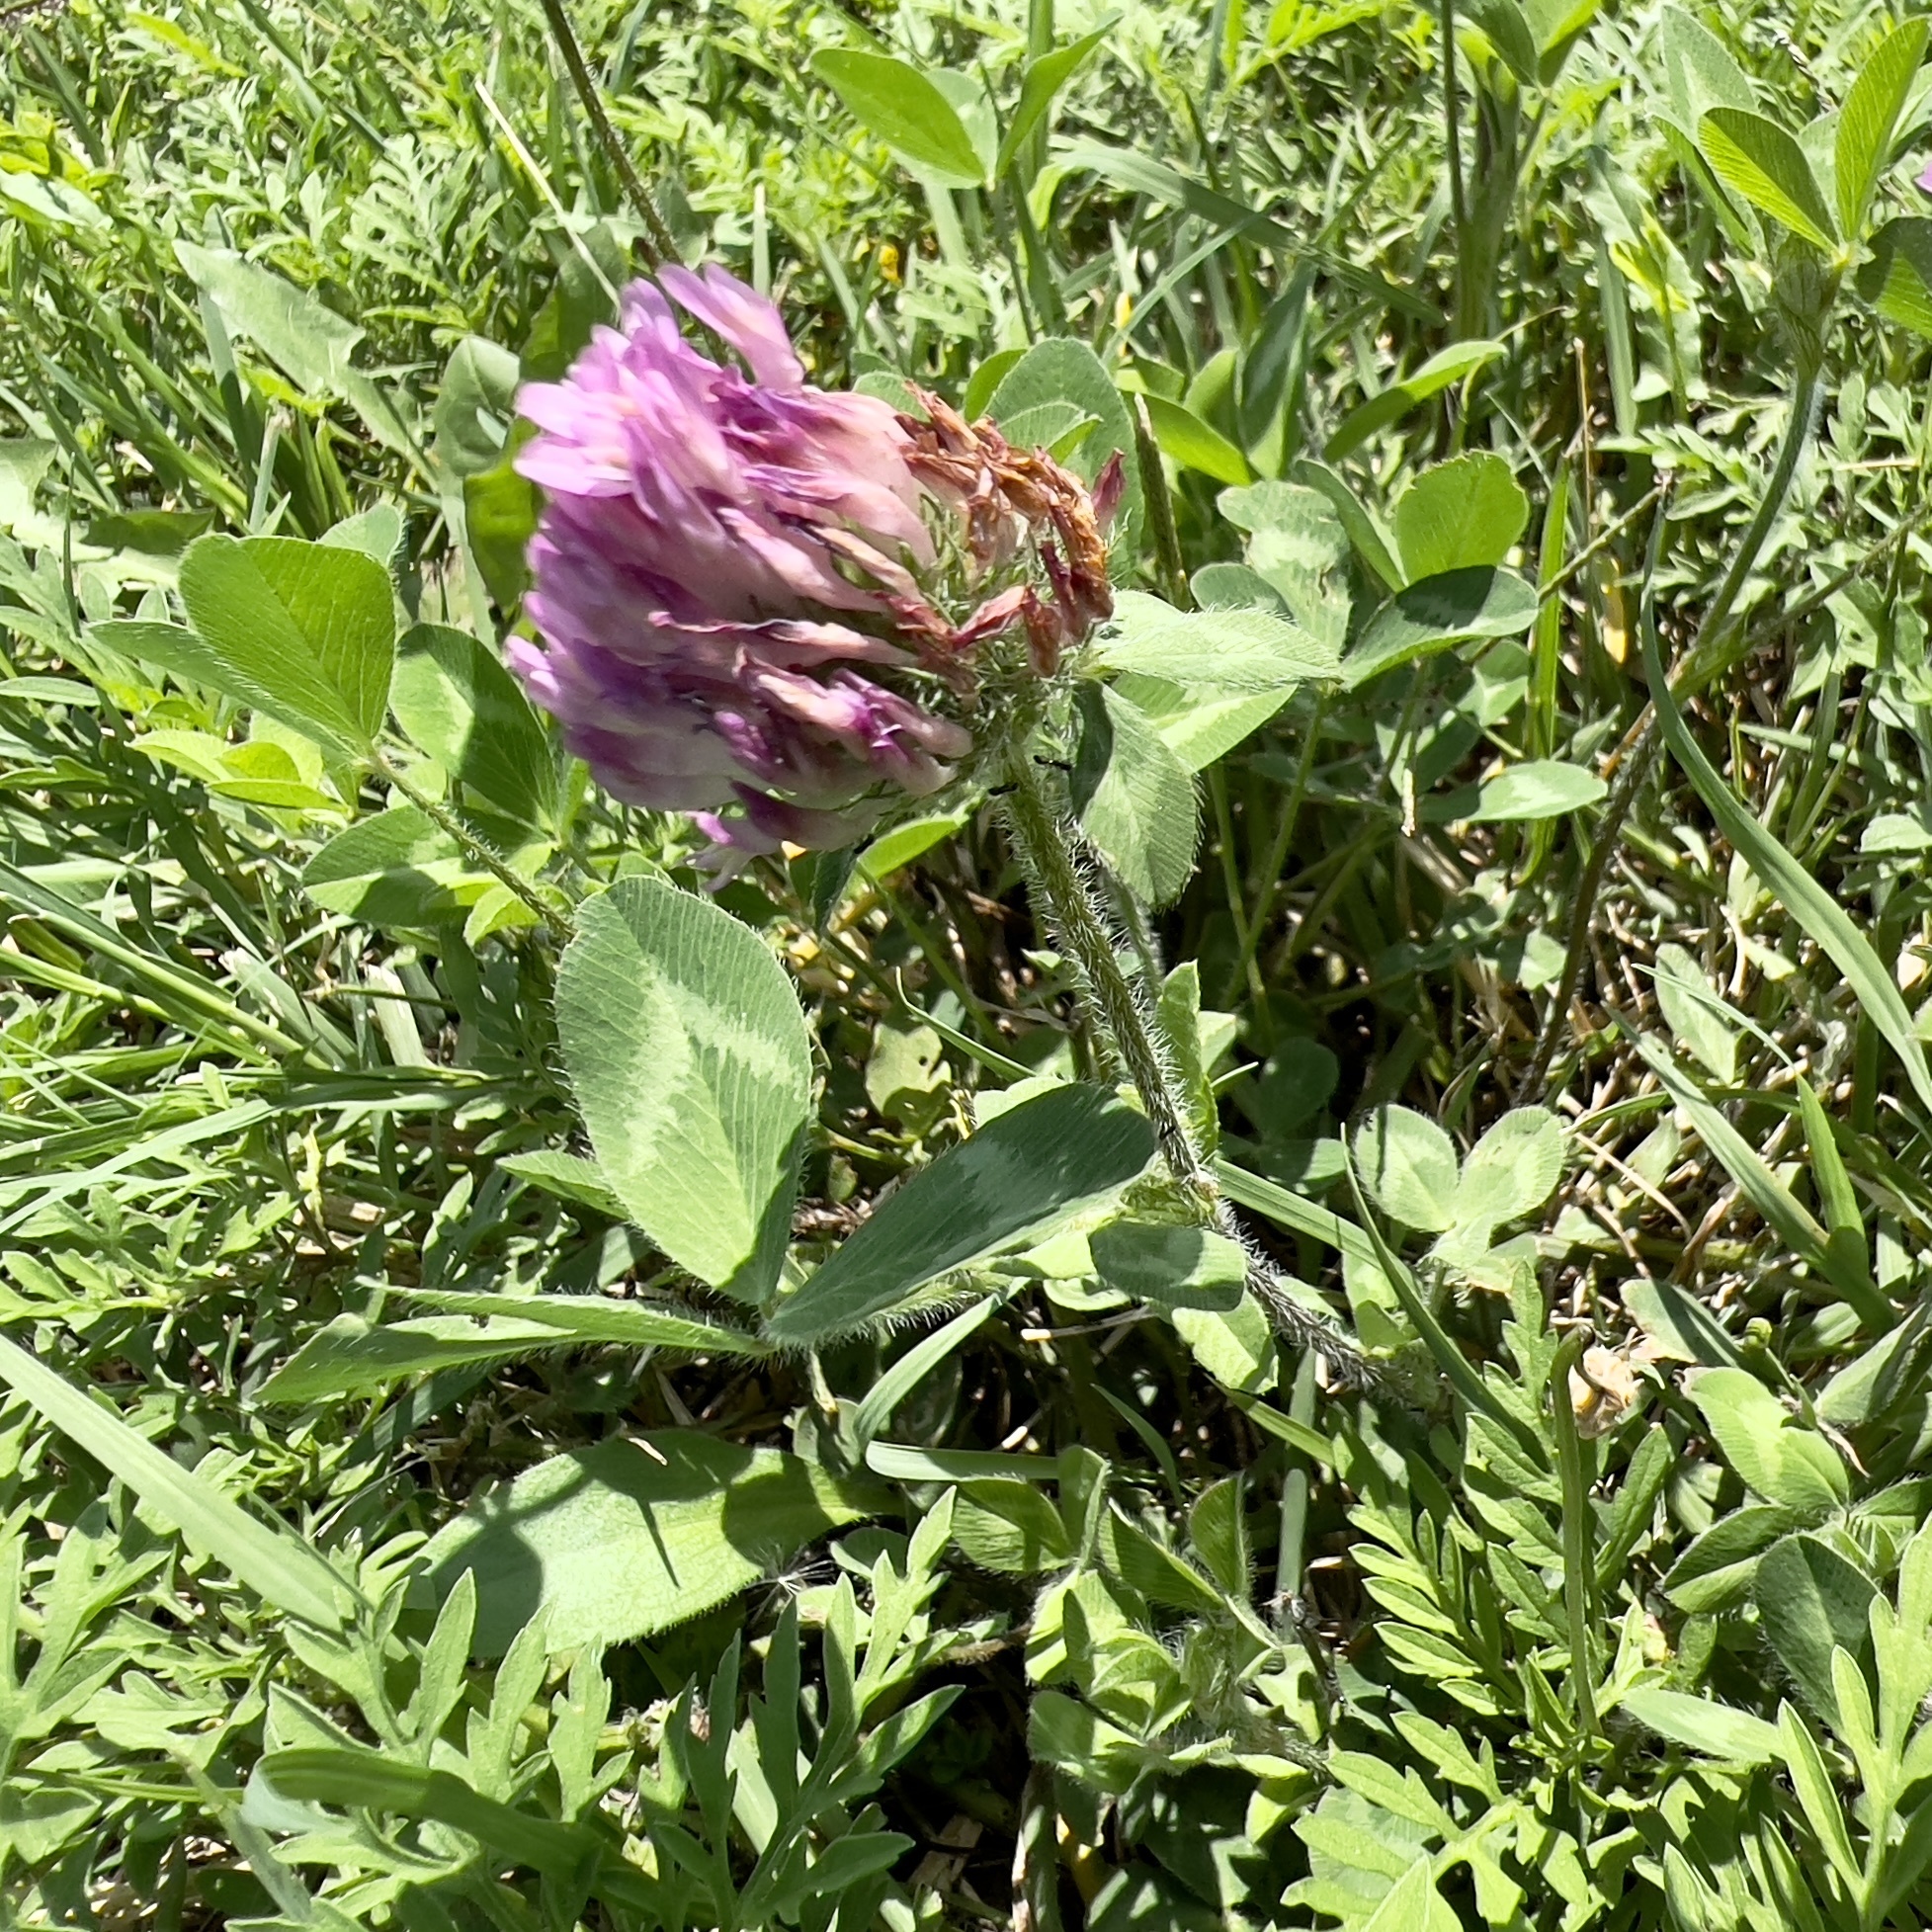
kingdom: Plantae
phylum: Tracheophyta
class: Magnoliopsida
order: Fabales
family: Fabaceae
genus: Trifolium
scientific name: Trifolium pratense
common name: Red clover
